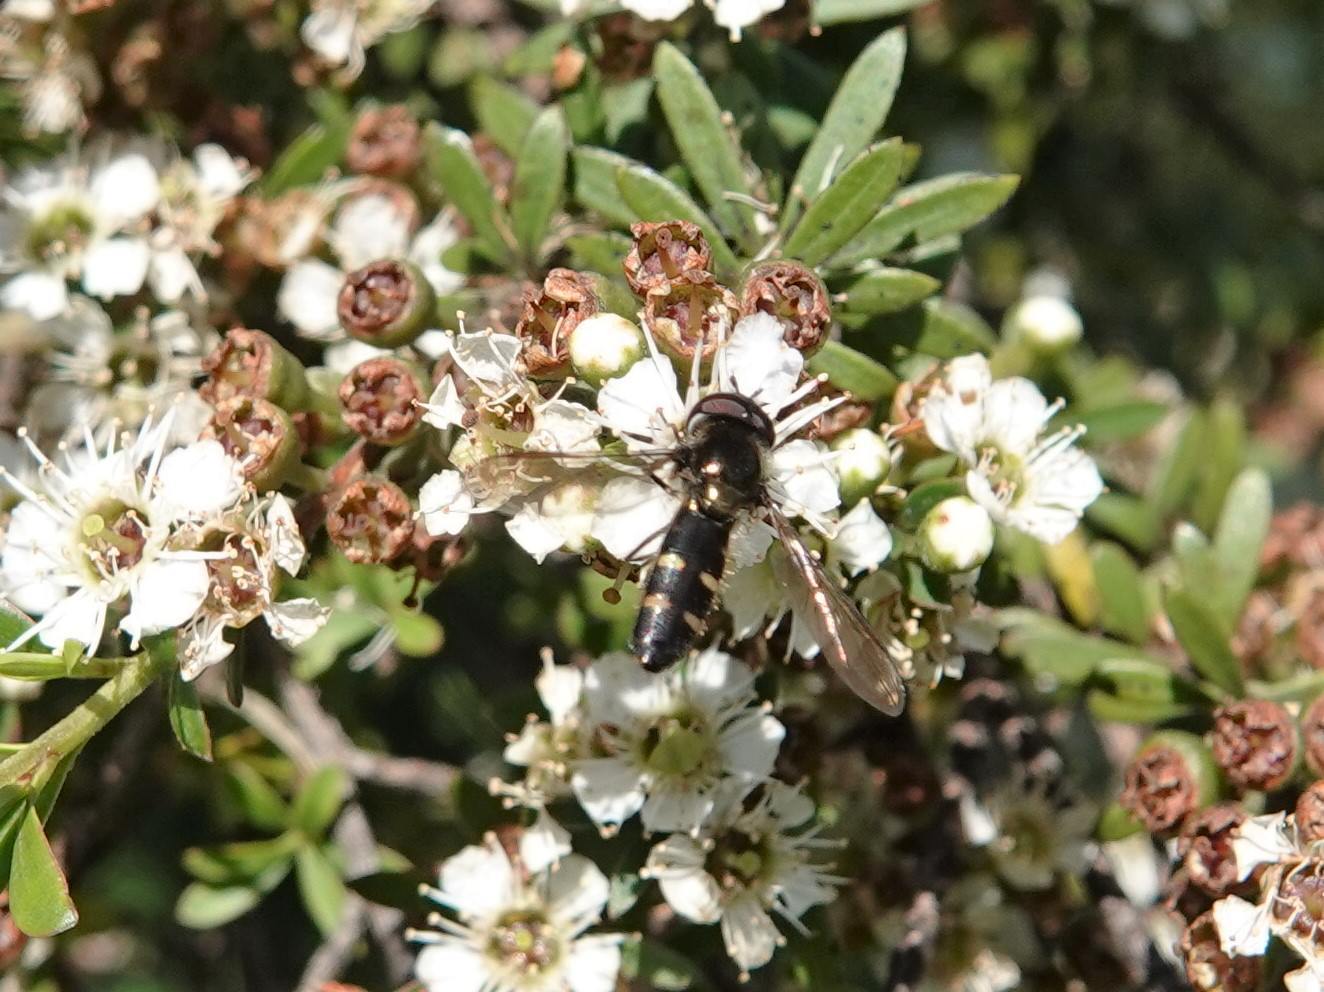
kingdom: Animalia
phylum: Arthropoda
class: Insecta
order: Diptera
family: Syrphidae
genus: Melangyna
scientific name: Melangyna novaezelandiae
